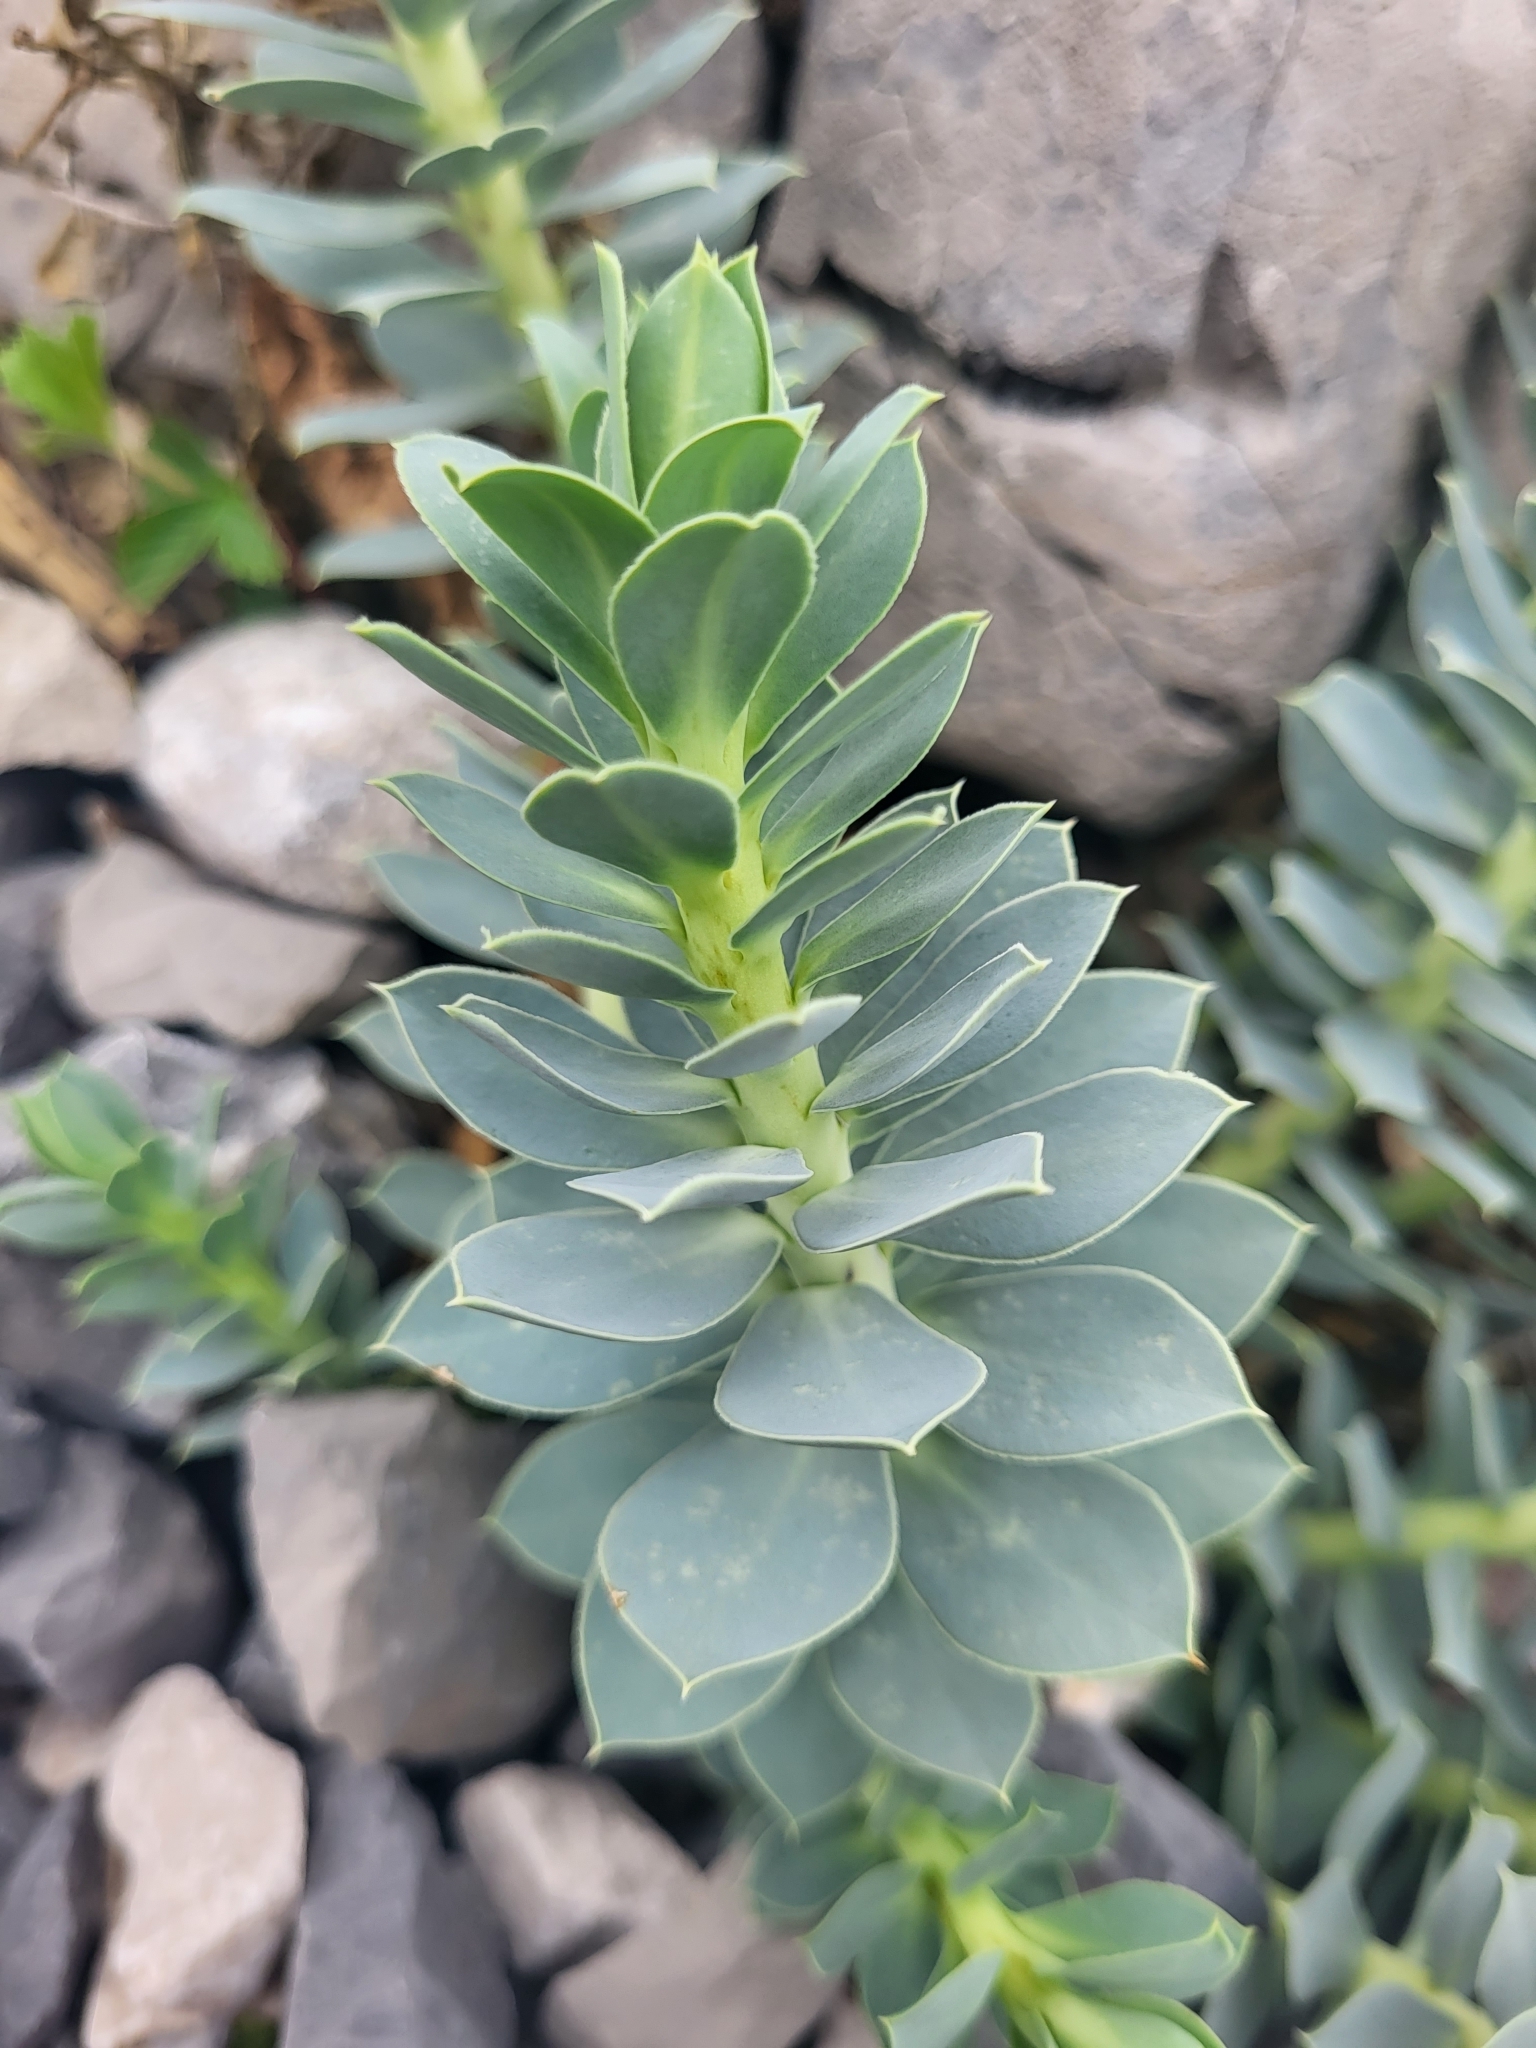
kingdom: Plantae
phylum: Tracheophyta
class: Magnoliopsida
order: Malpighiales
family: Euphorbiaceae
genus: Euphorbia
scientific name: Euphorbia myrsinites
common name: Myrtle spurge
